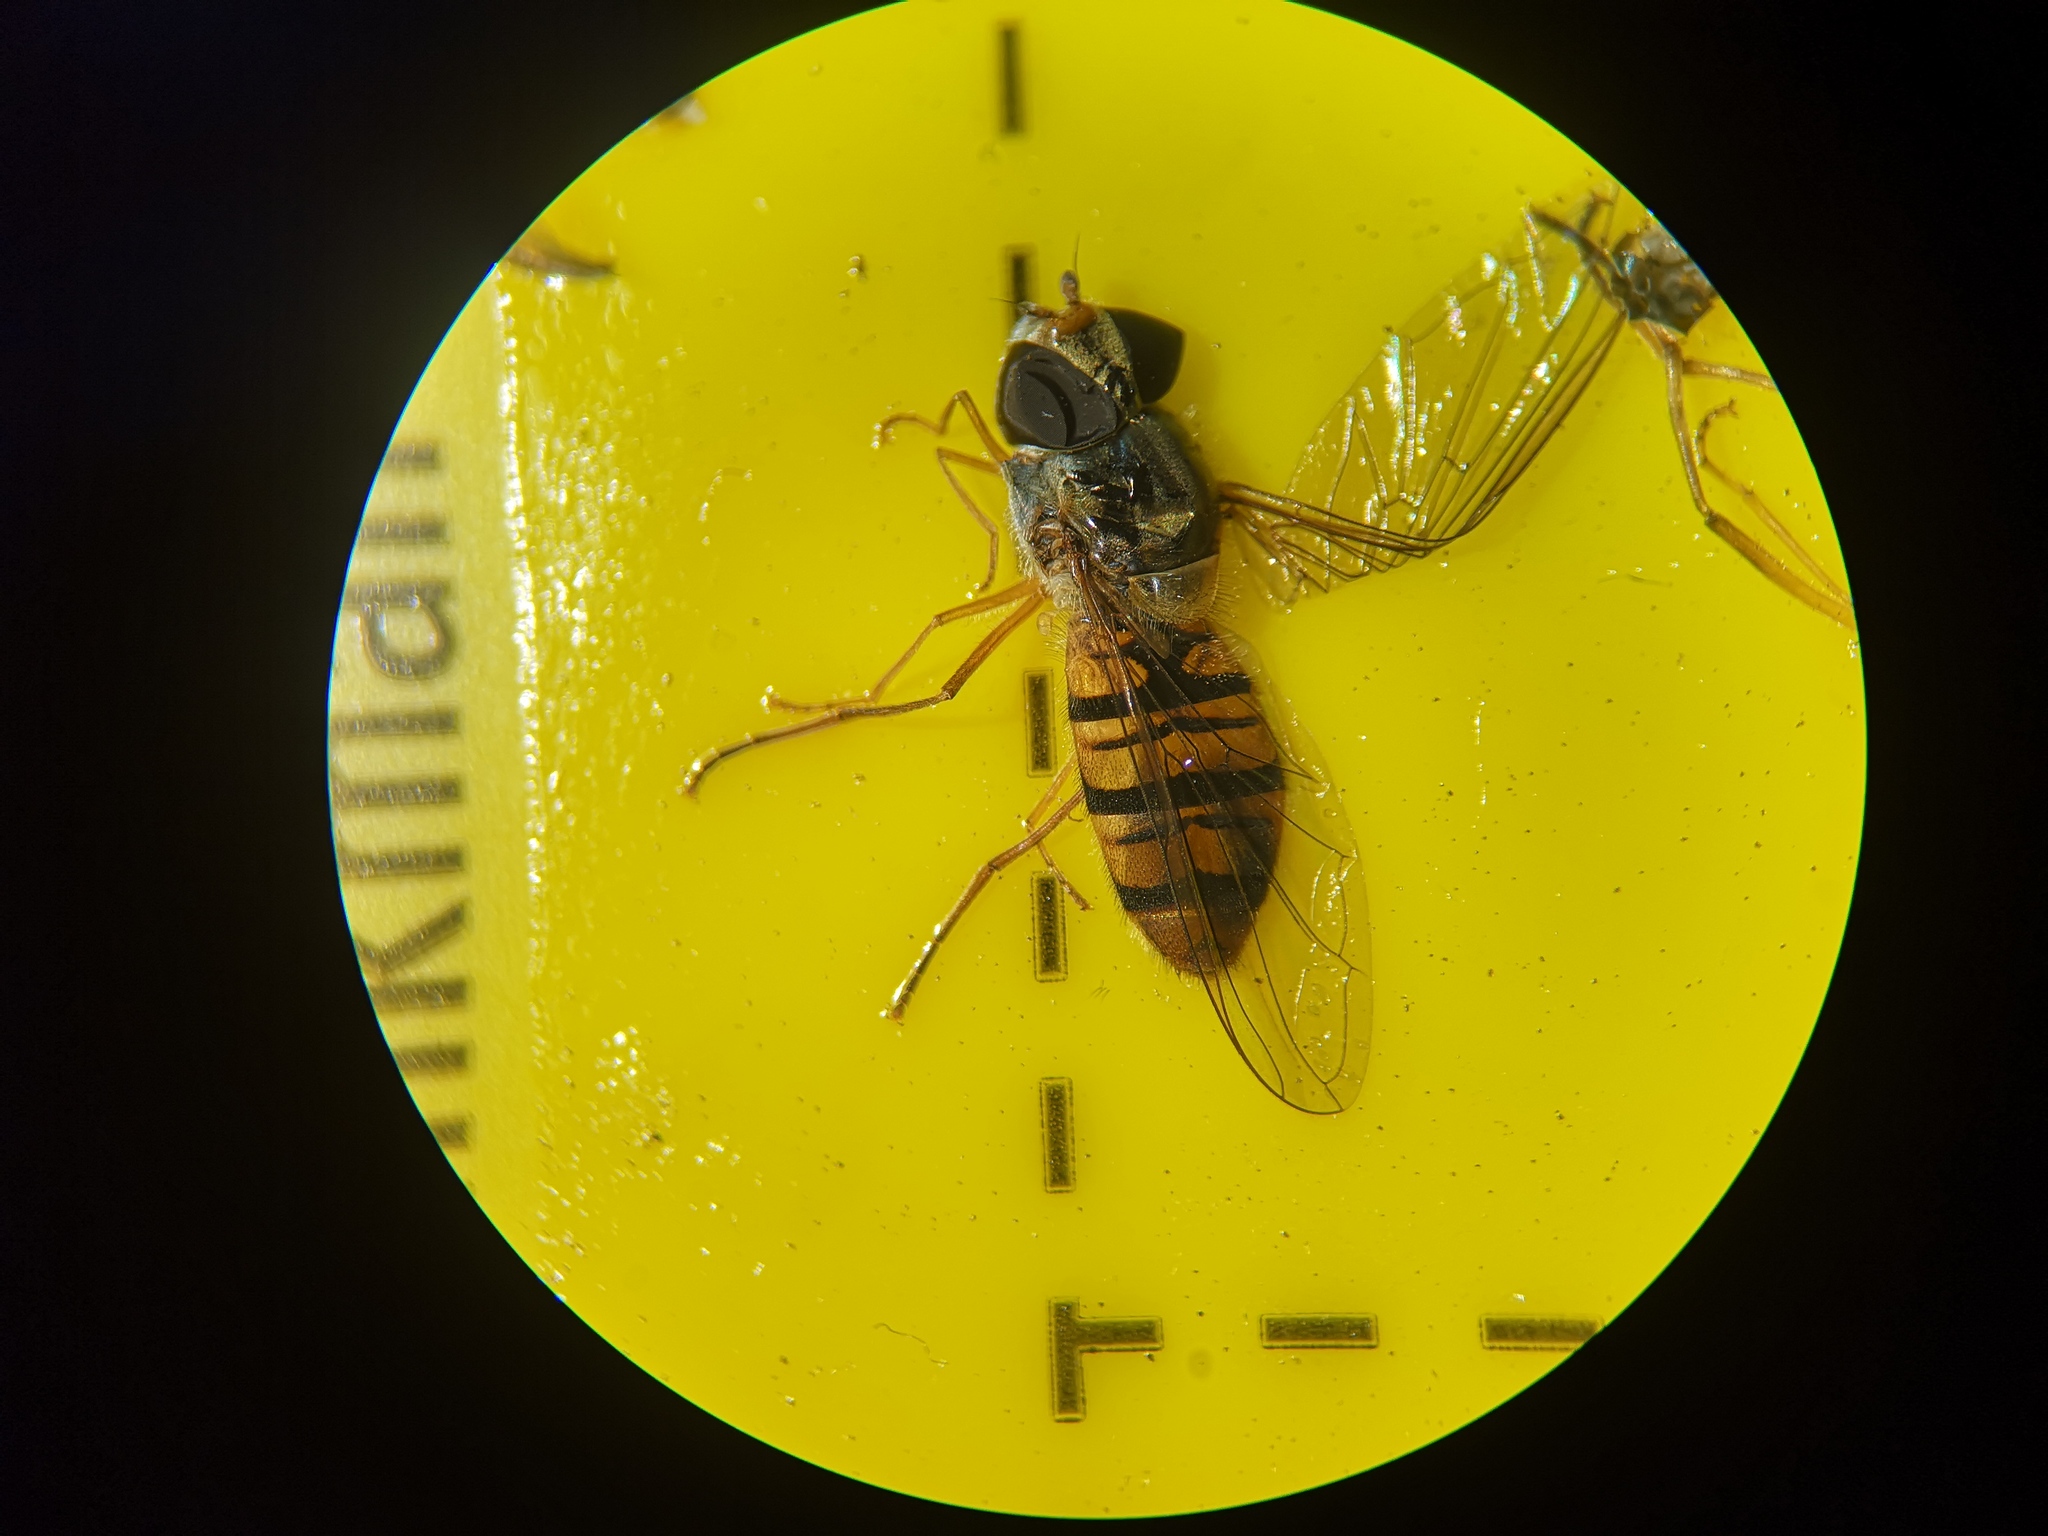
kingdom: Animalia
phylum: Arthropoda
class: Insecta
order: Diptera
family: Syrphidae
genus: Episyrphus
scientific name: Episyrphus balteatus
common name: Marmalade hoverfly
